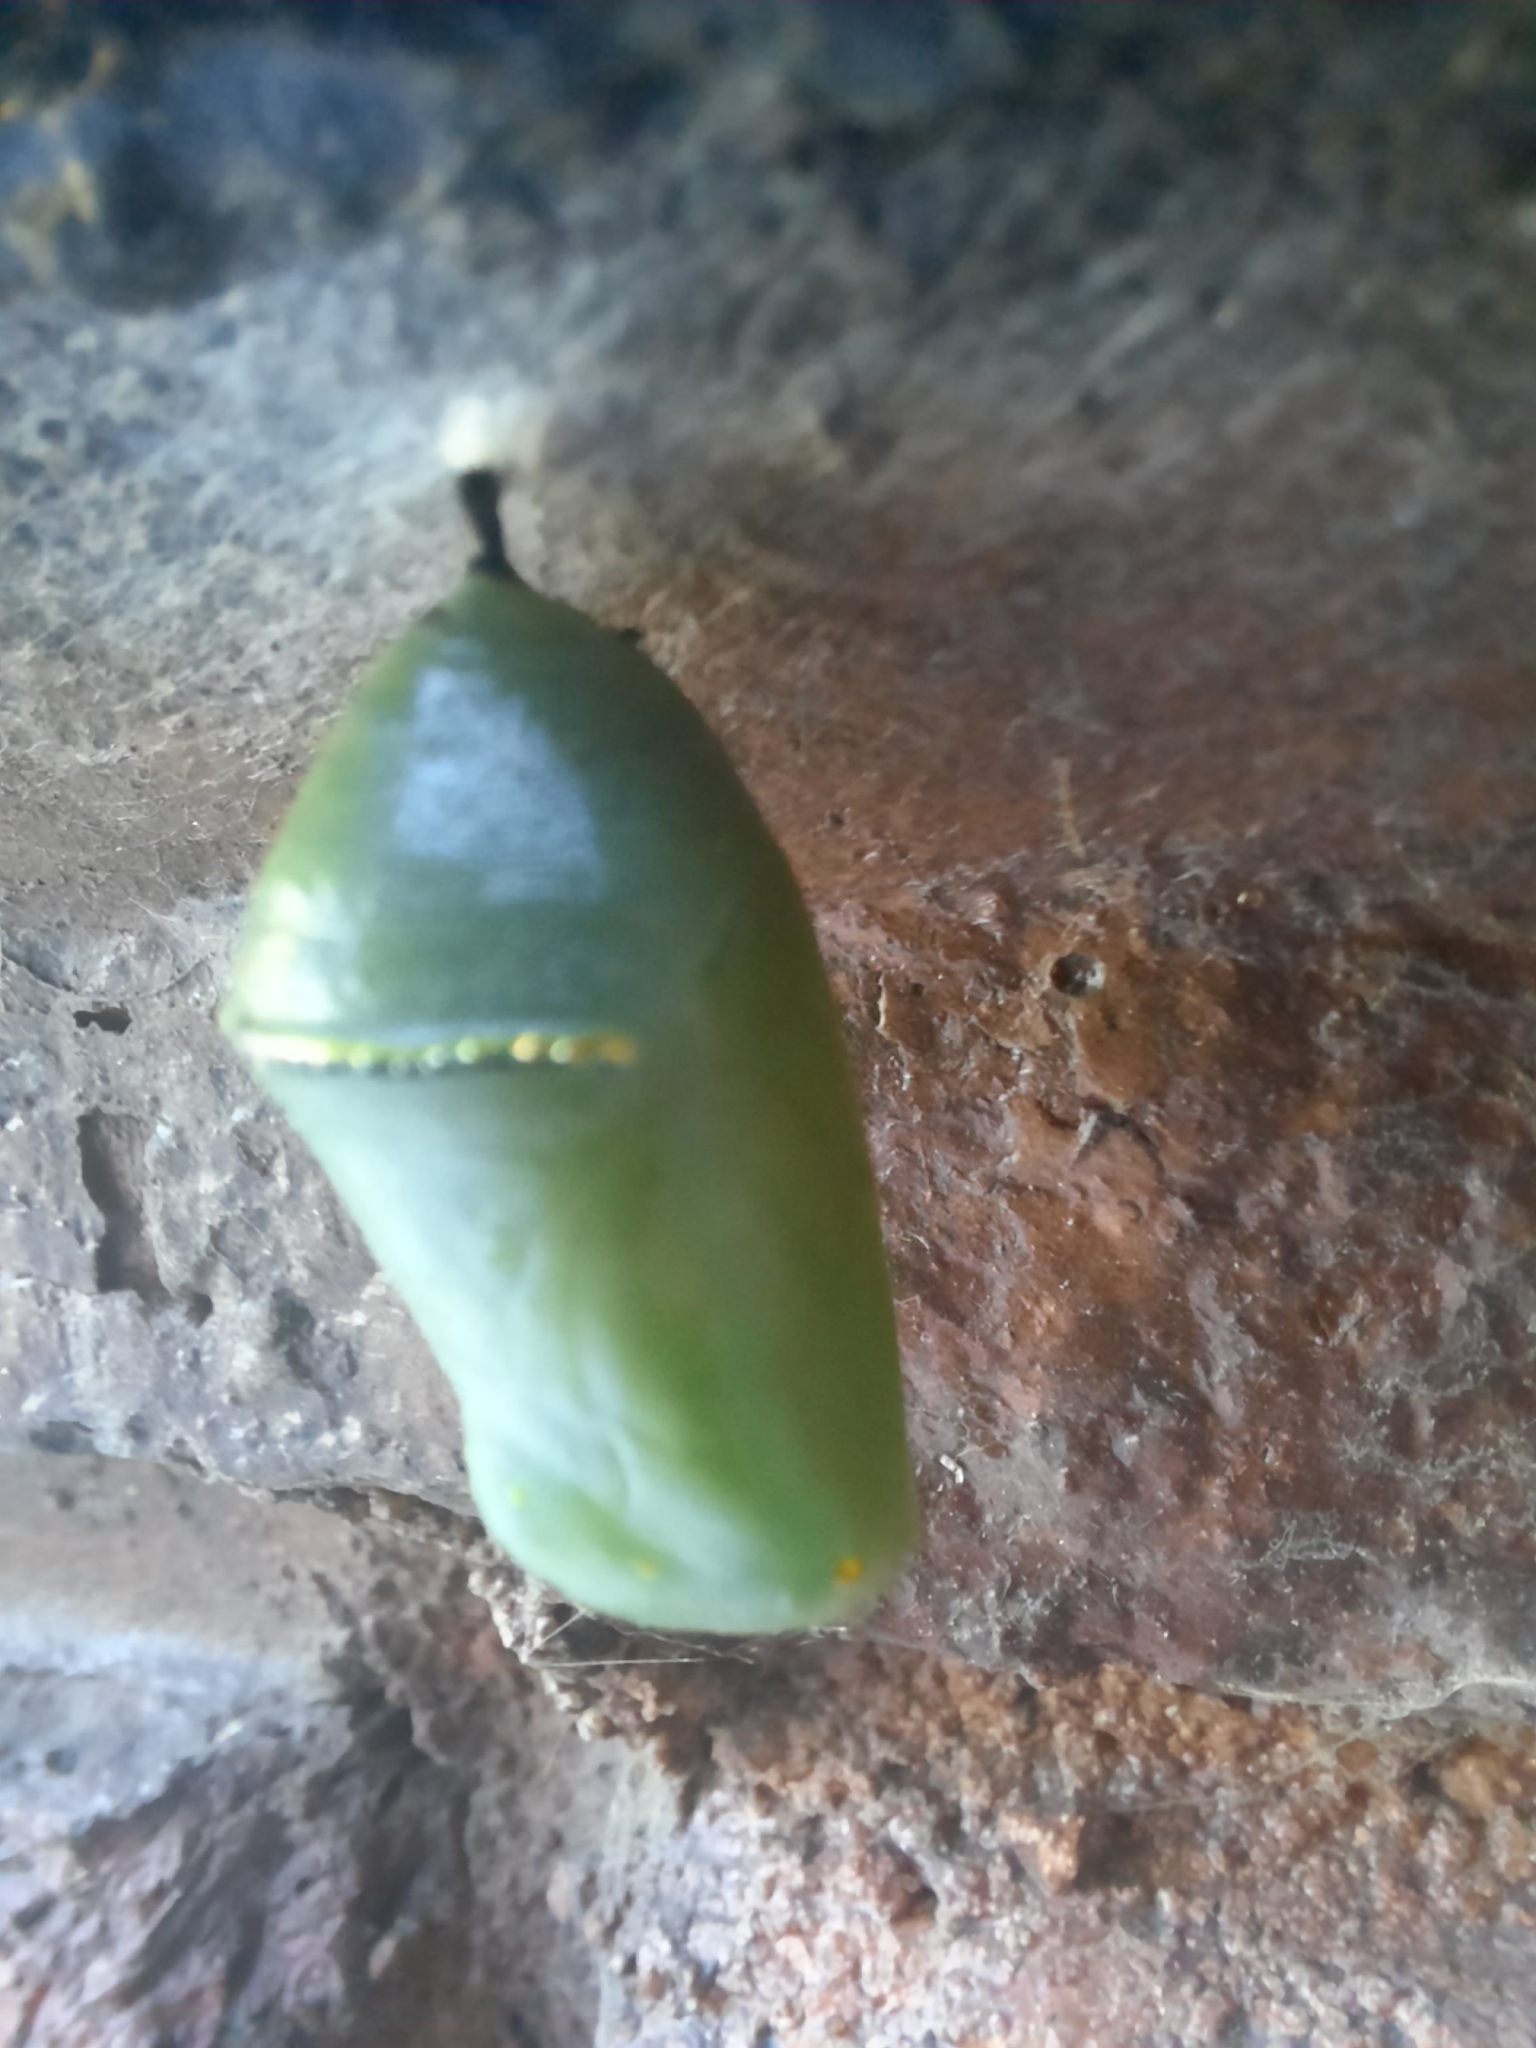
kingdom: Animalia
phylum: Arthropoda
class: Insecta
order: Lepidoptera
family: Nymphalidae
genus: Danaus
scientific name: Danaus erippus
